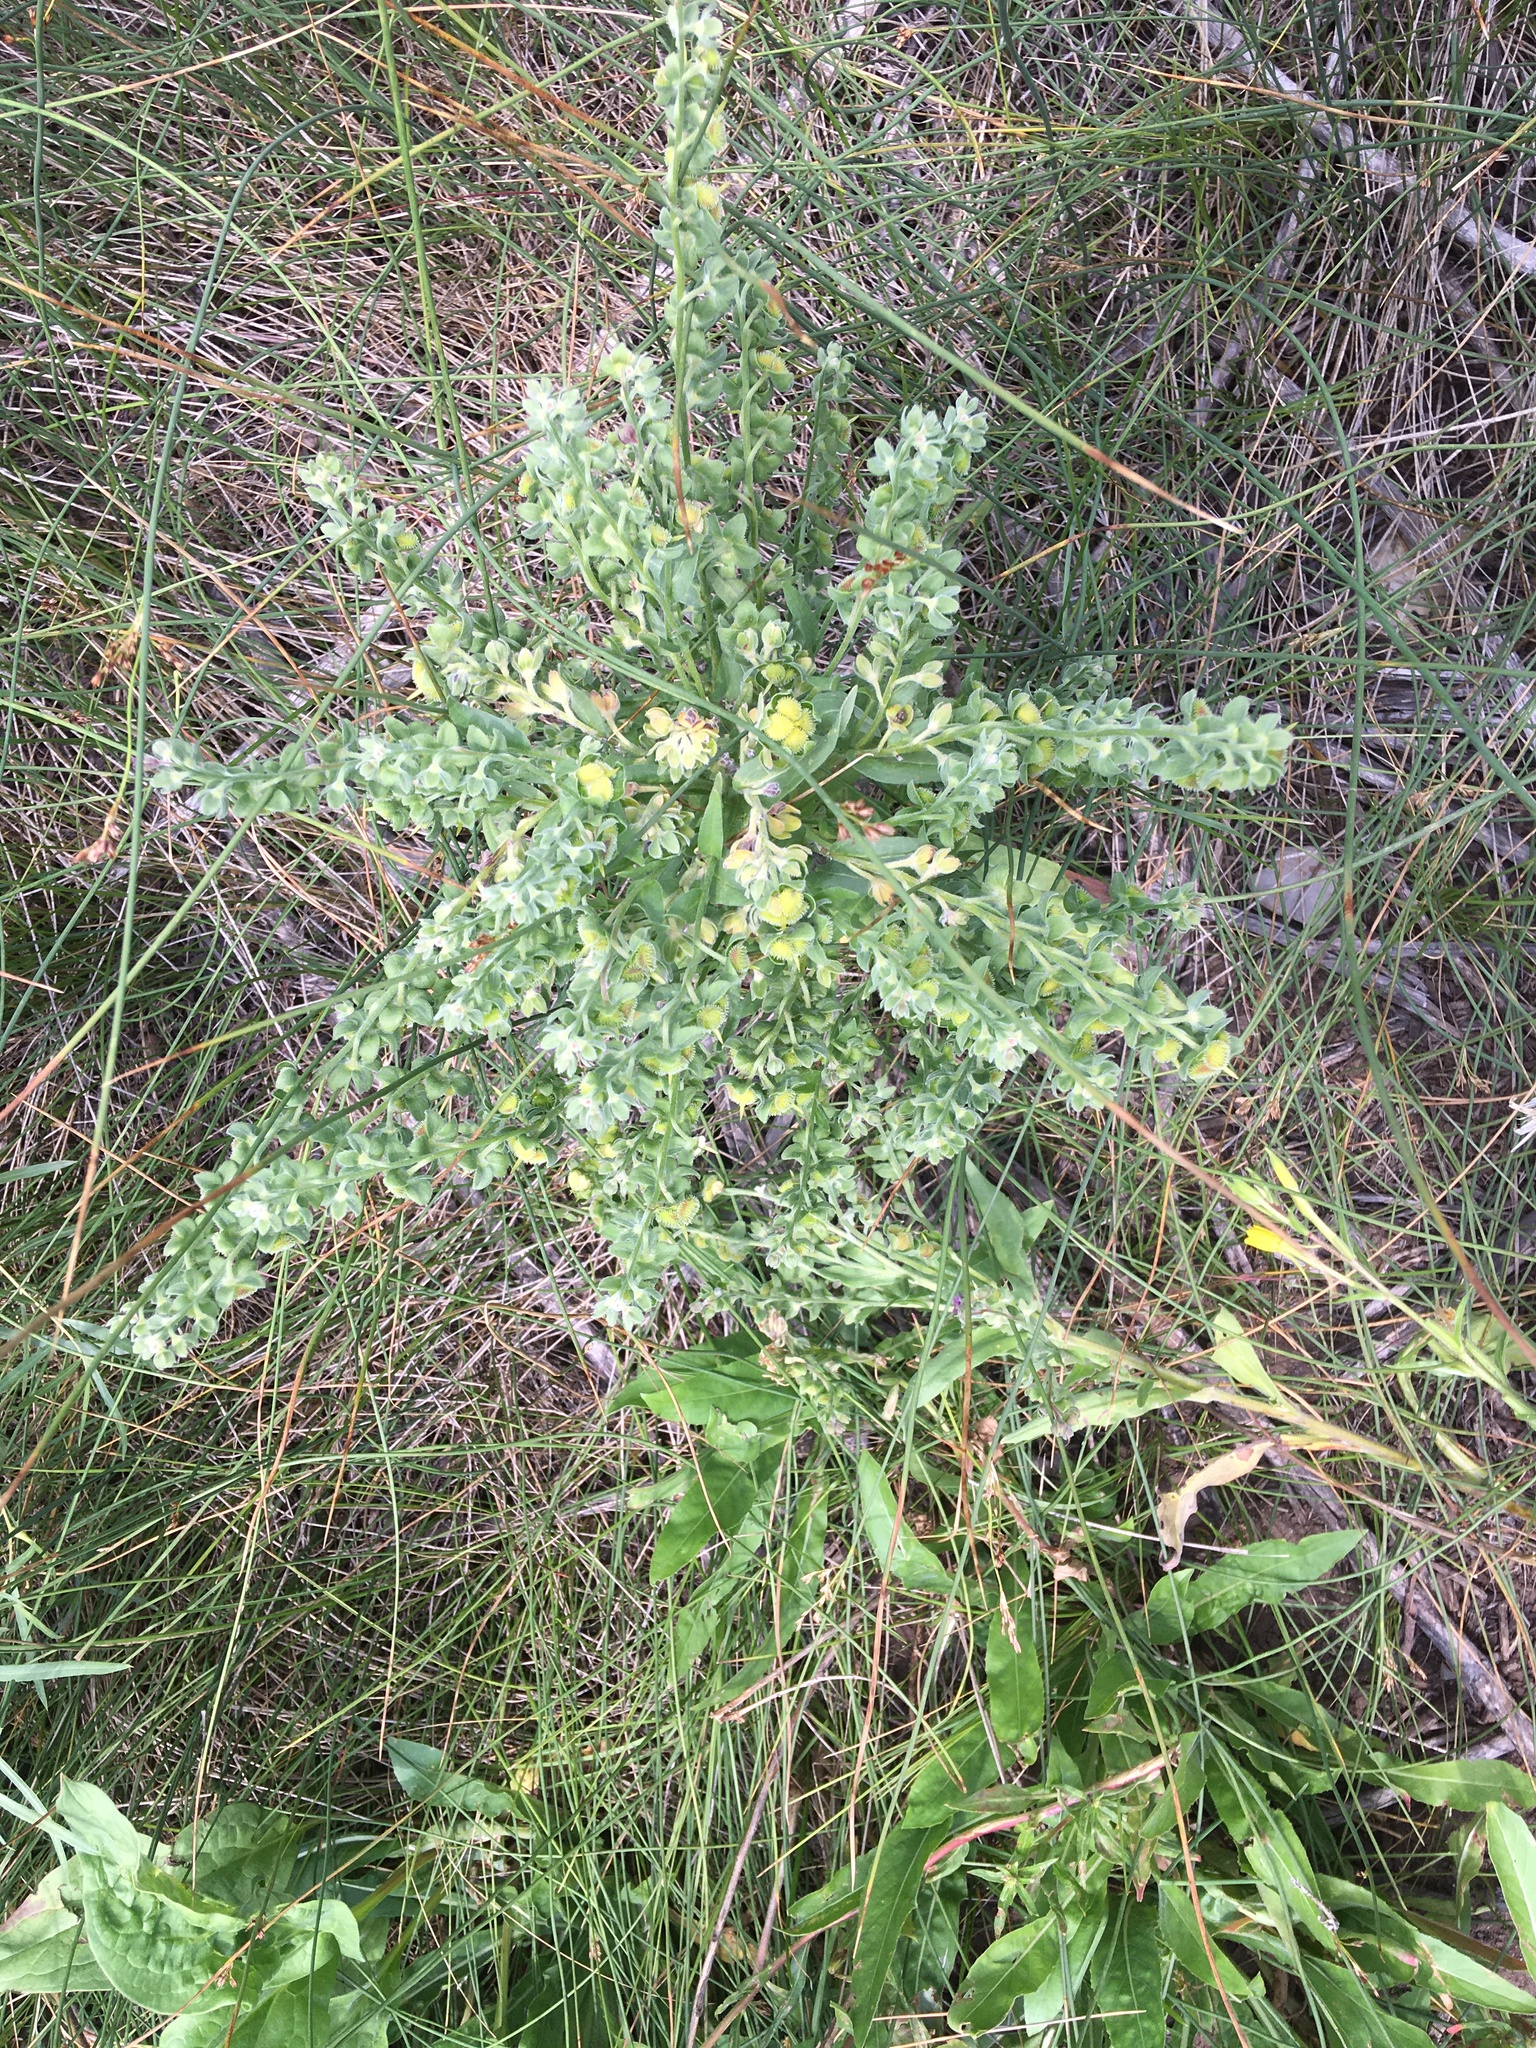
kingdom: Plantae
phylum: Tracheophyta
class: Magnoliopsida
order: Boraginales
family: Boraginaceae
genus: Cynoglossum
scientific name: Cynoglossum officinale
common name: Hound's-tongue
